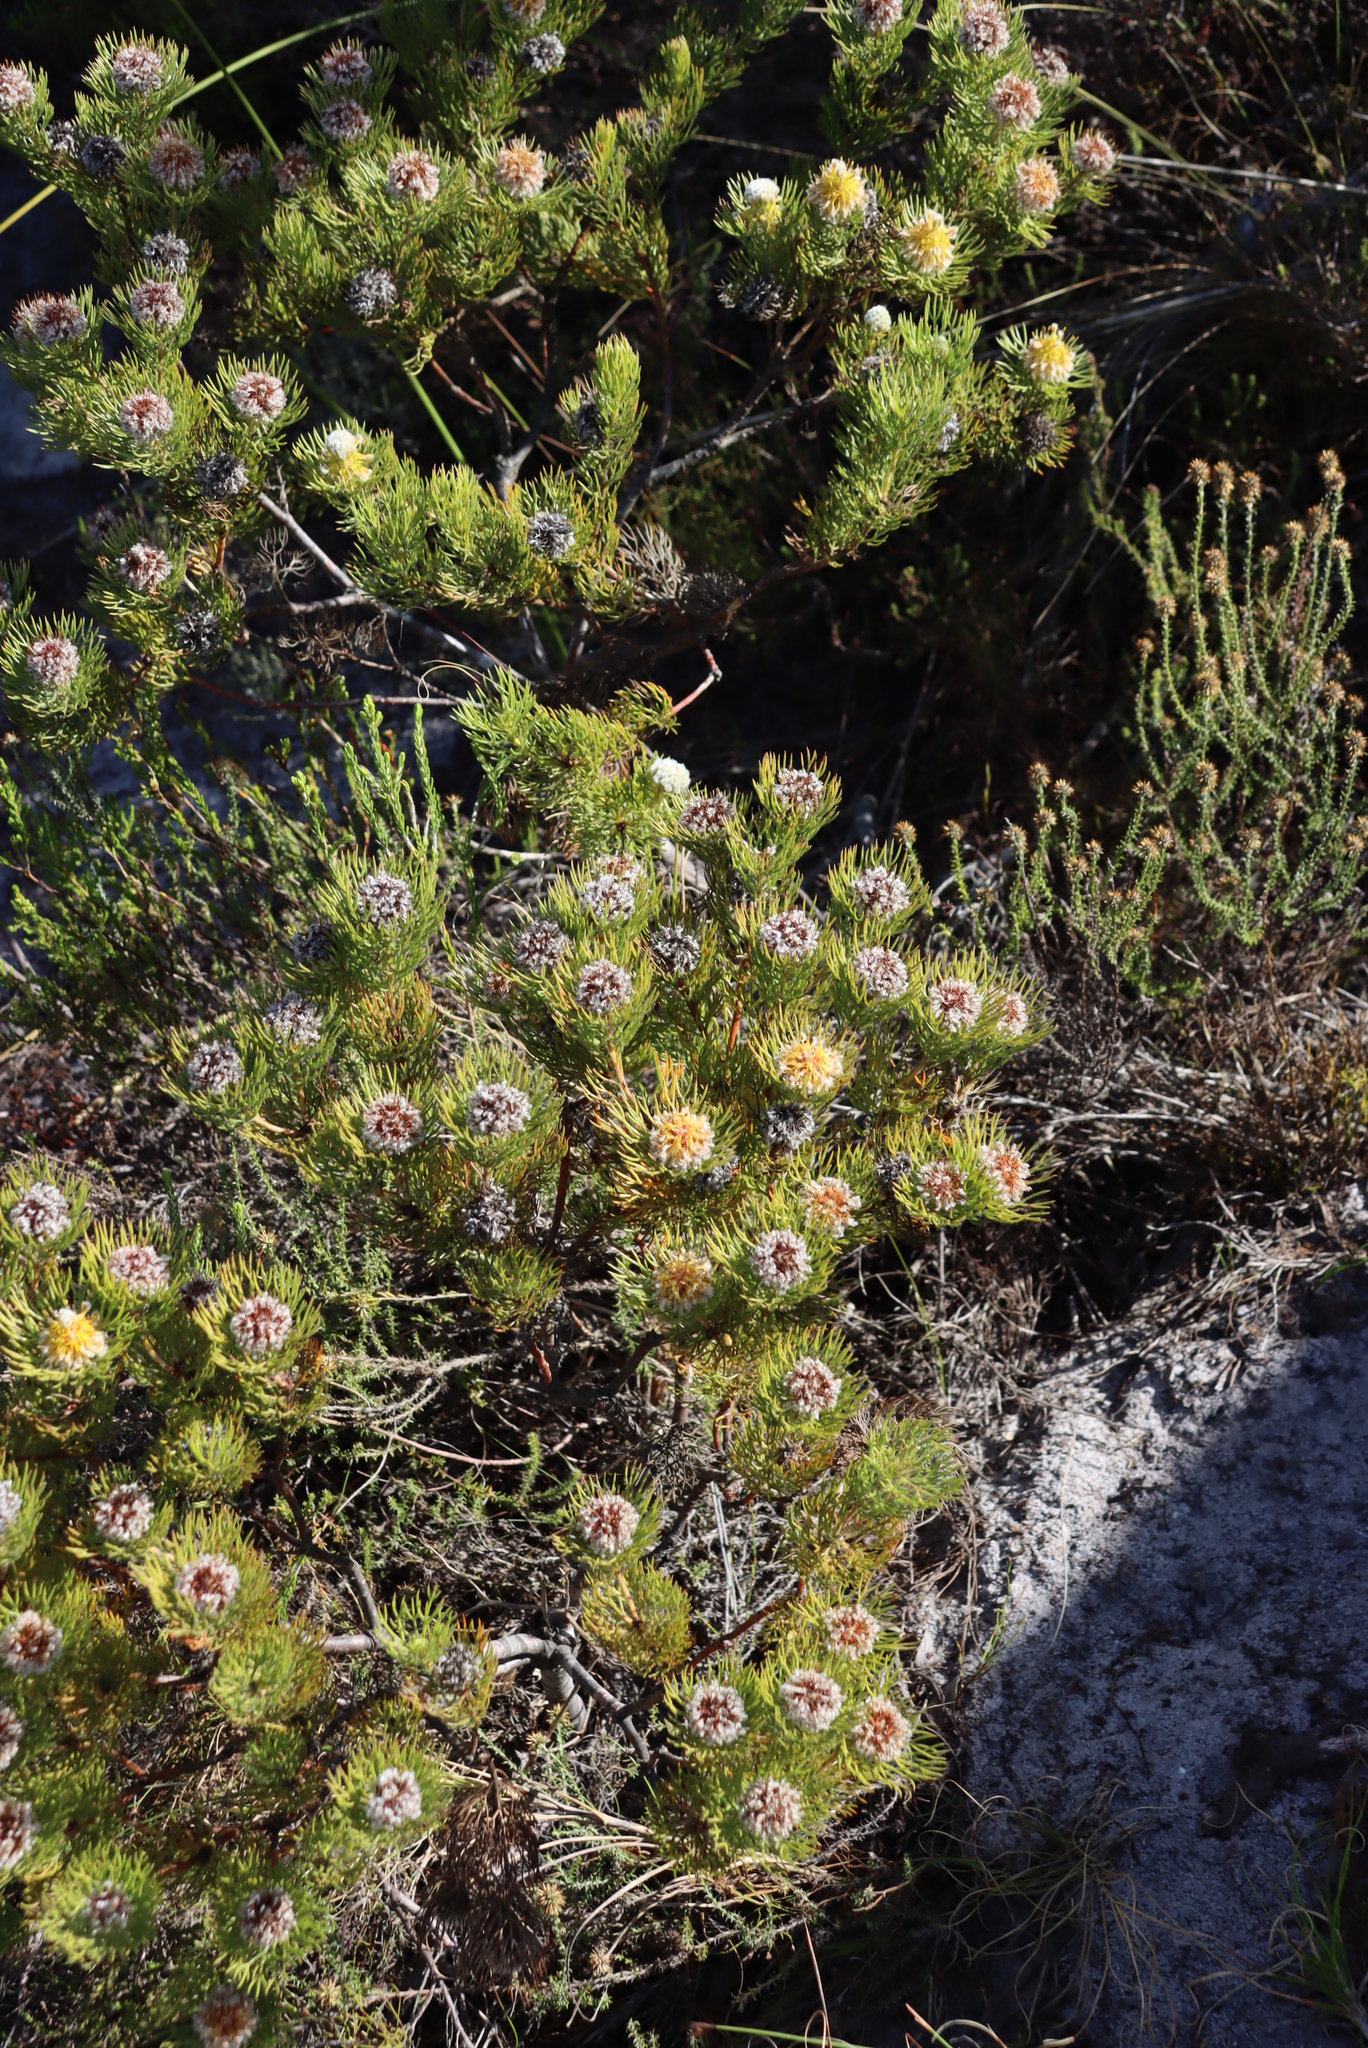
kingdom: Plantae
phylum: Tracheophyta
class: Magnoliopsida
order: Proteales
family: Proteaceae
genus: Serruria
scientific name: Serruria villosa
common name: Golden spiderhead
